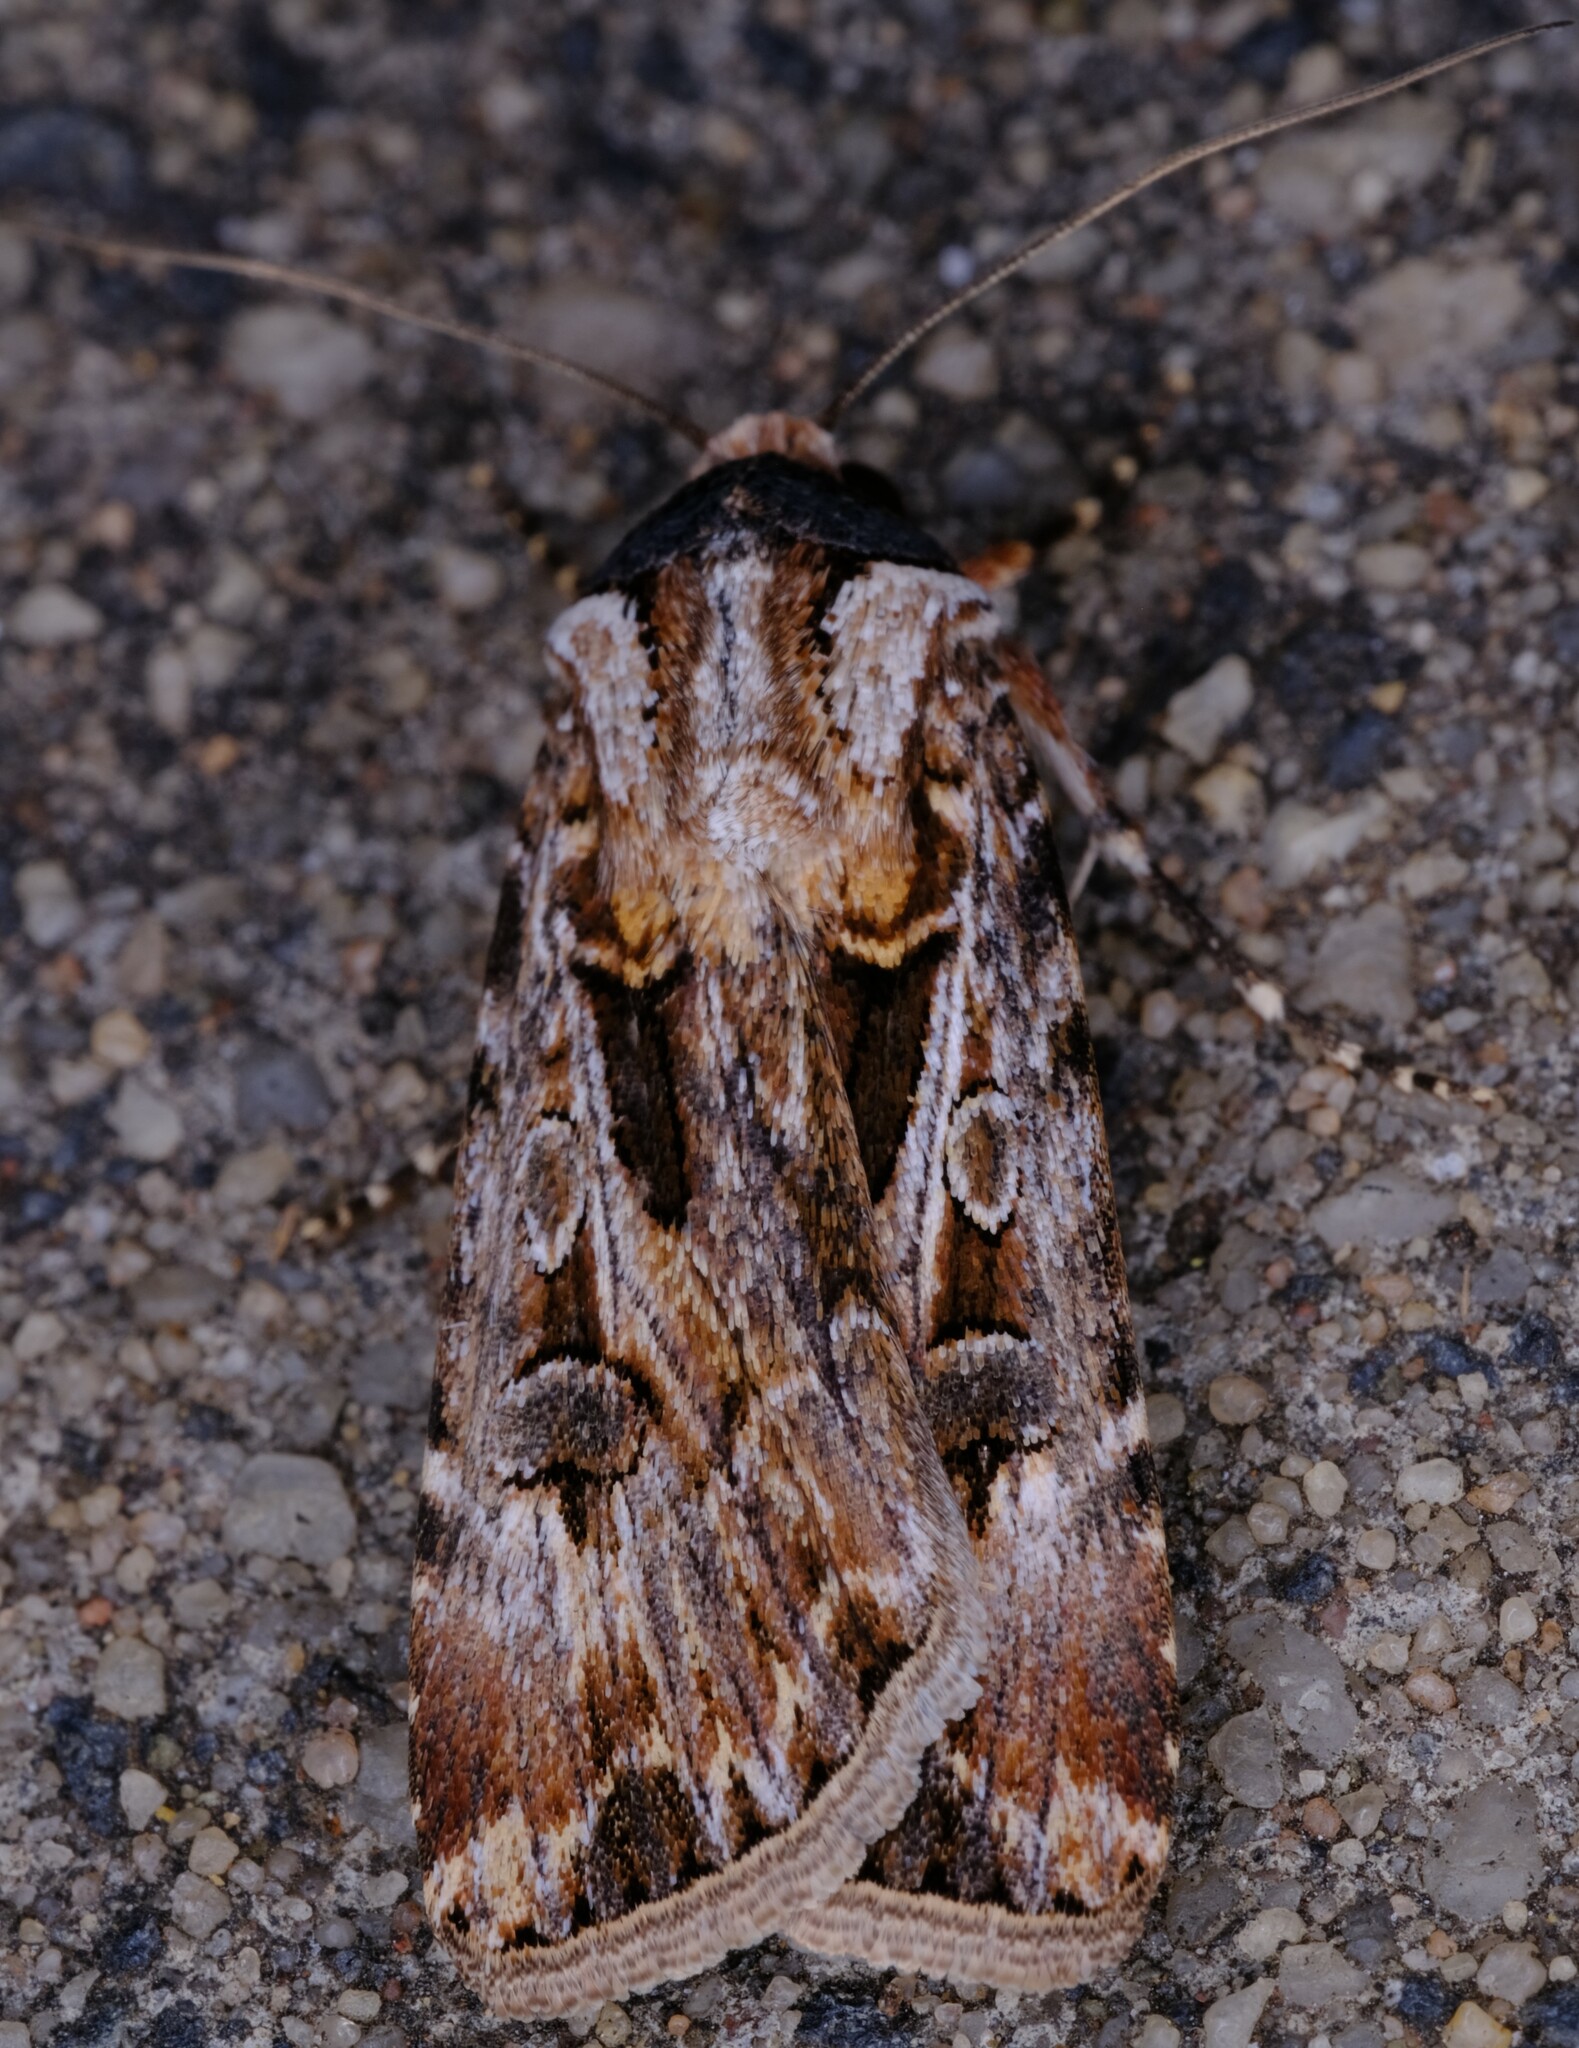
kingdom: Animalia
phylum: Arthropoda
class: Insecta
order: Lepidoptera
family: Noctuidae
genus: Agrotis
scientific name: Agrotis munda
